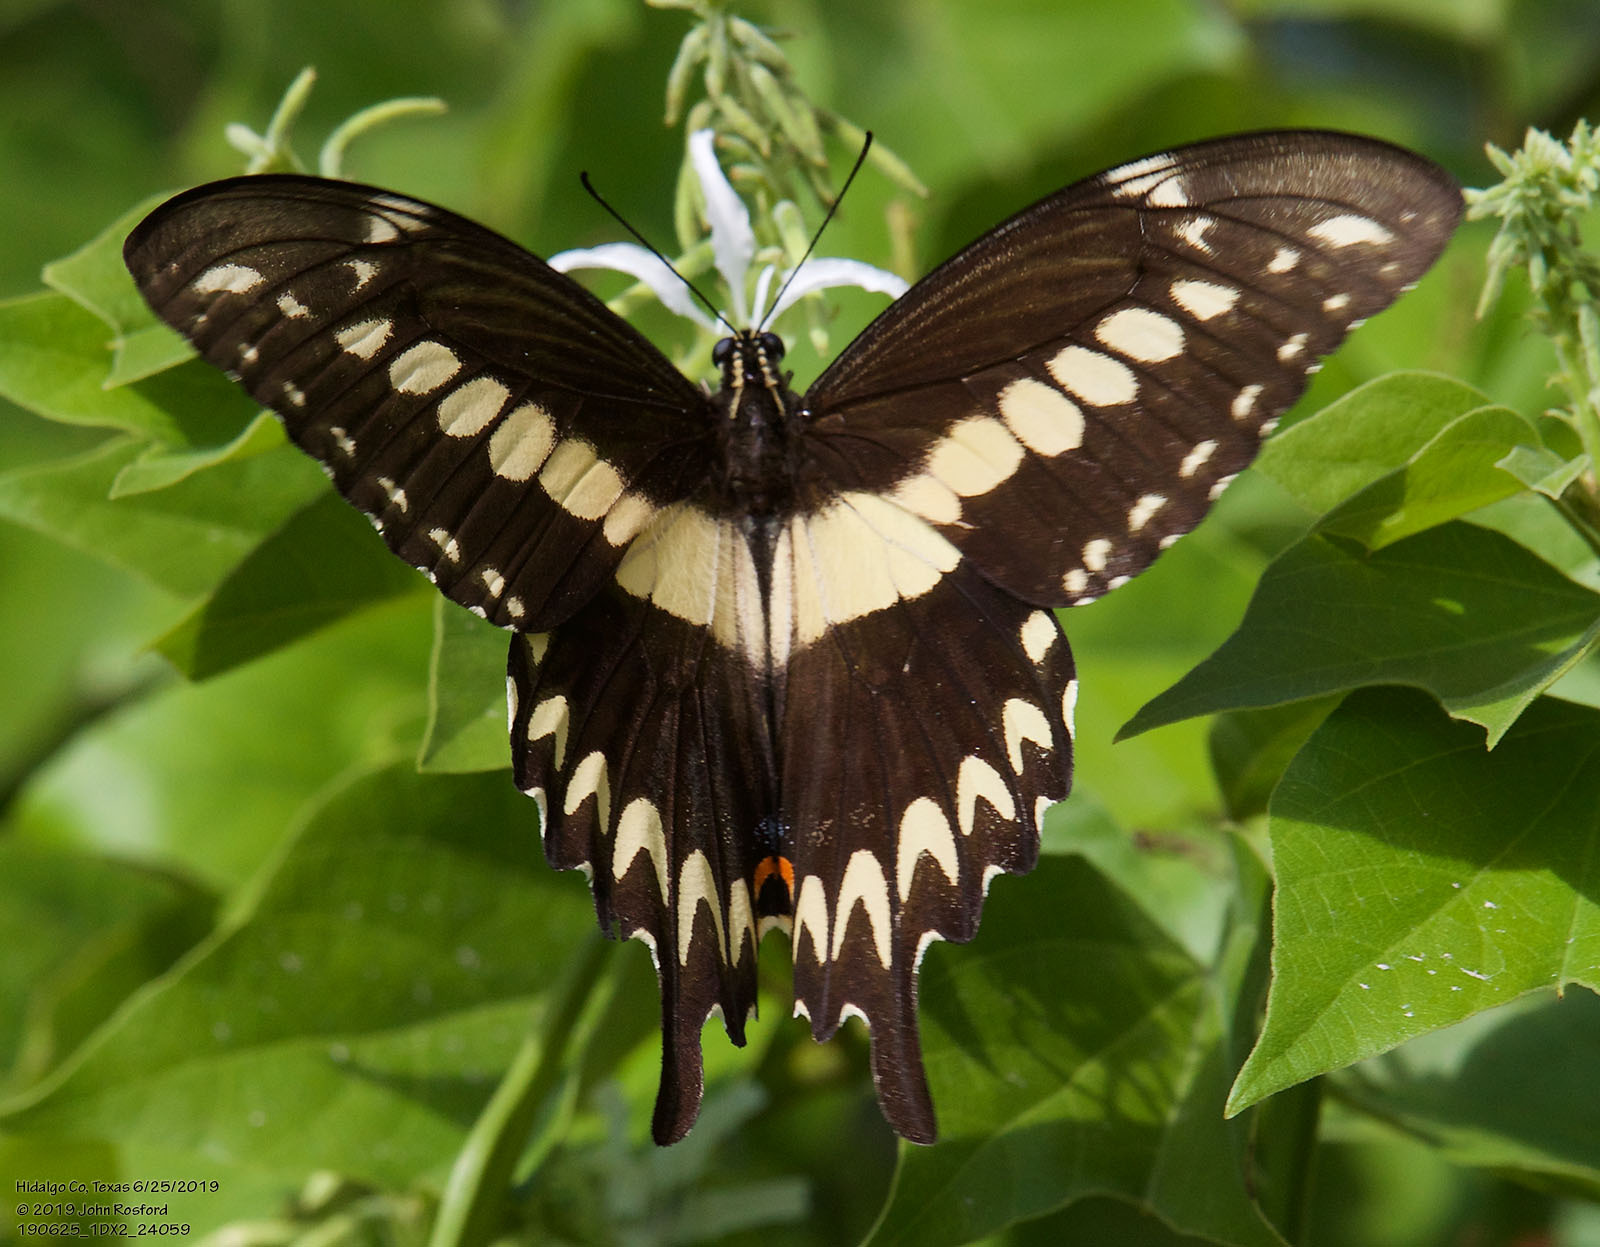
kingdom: Animalia
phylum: Arthropoda
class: Insecta
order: Lepidoptera
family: Papilionidae
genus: Papilio
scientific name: Papilio ornythion
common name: Ornythion swallowtail
